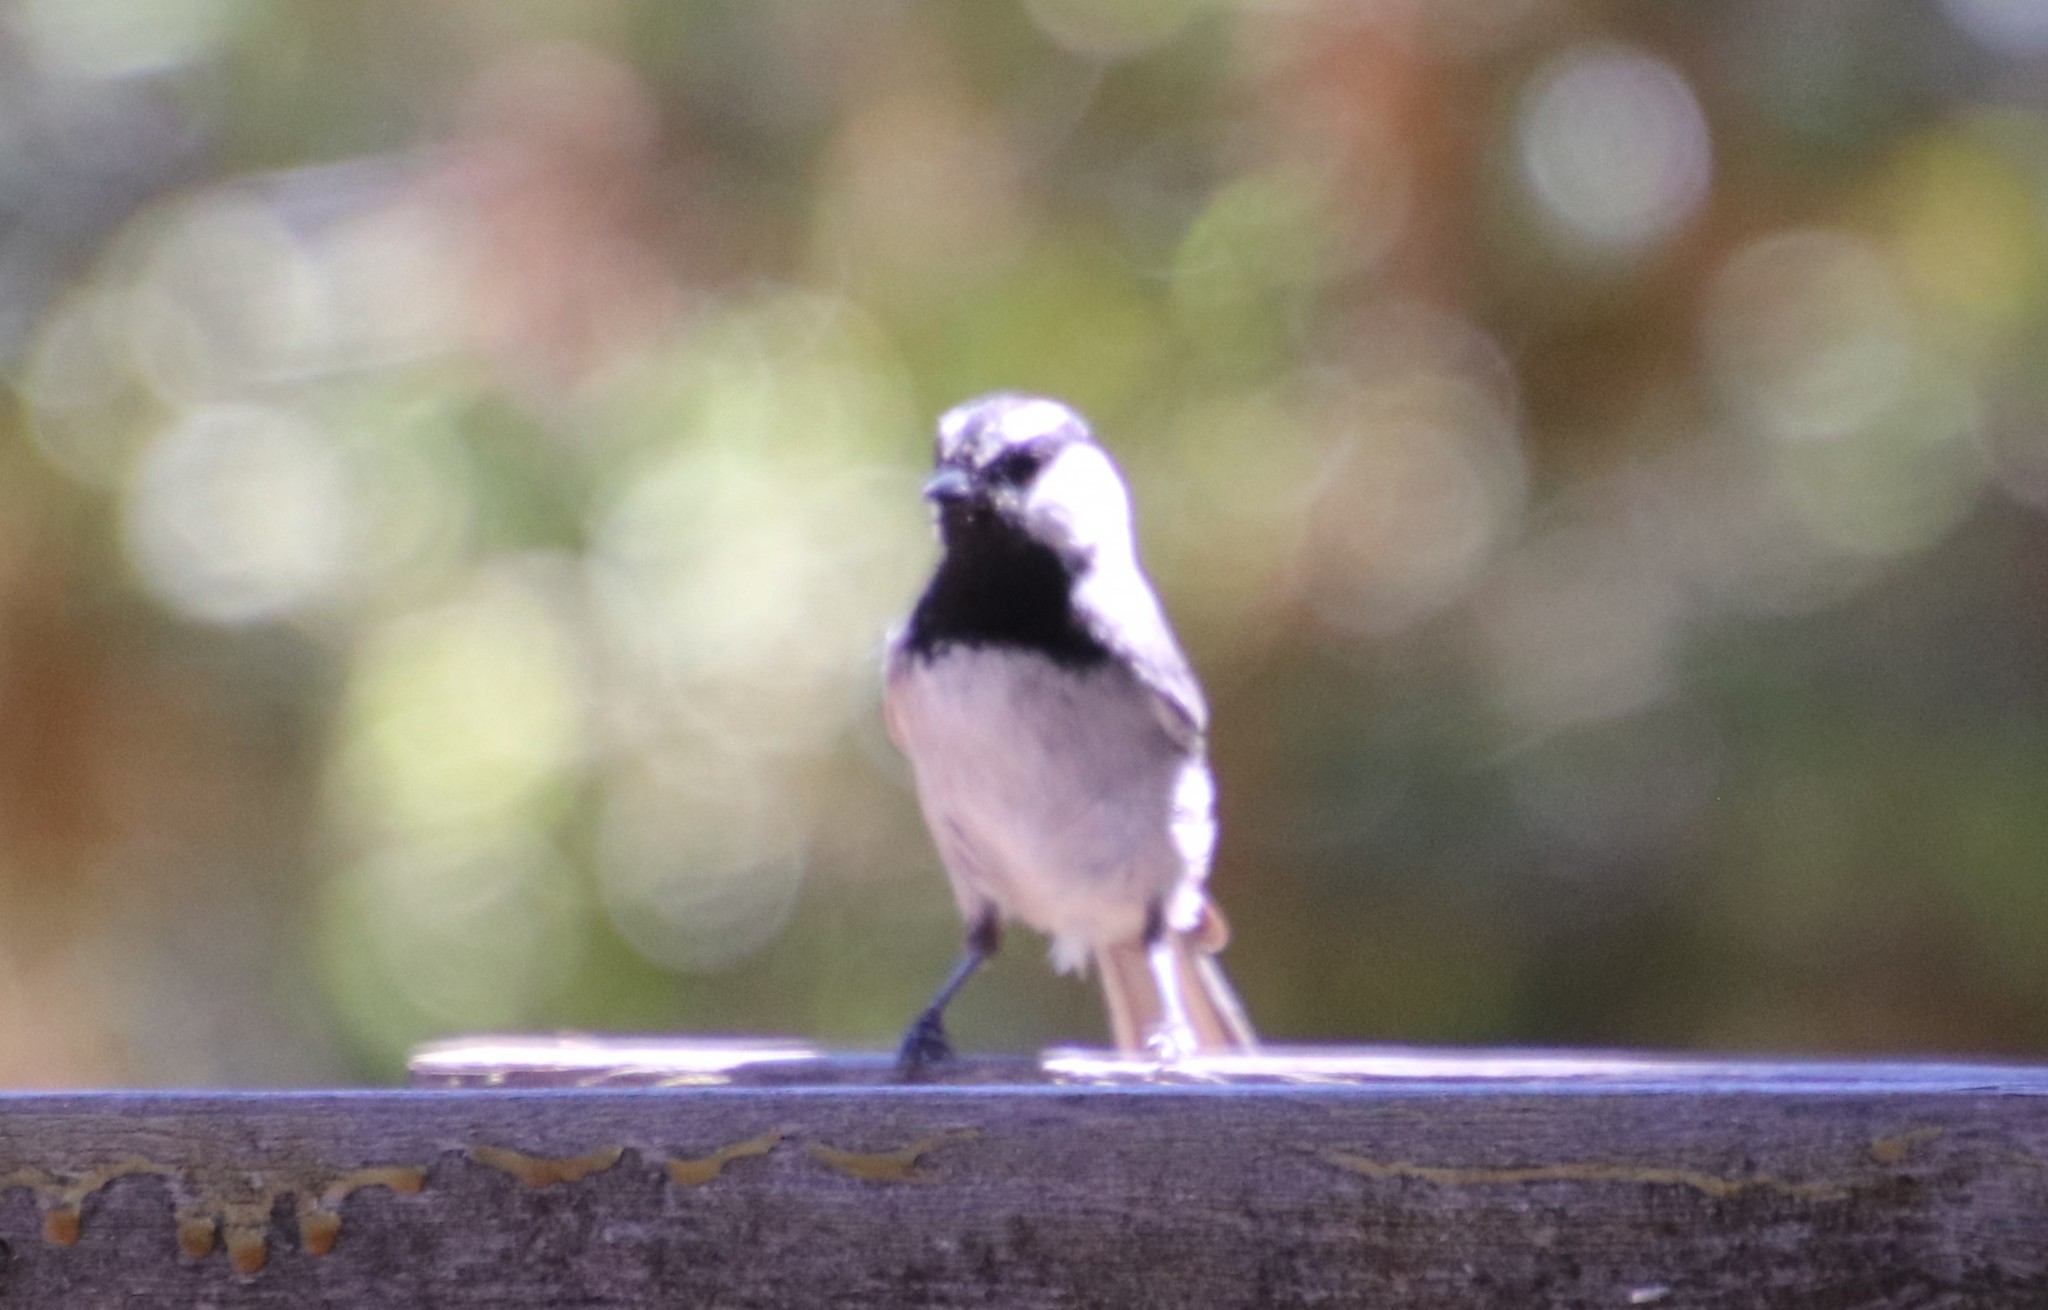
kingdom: Animalia
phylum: Chordata
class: Aves
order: Passeriformes
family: Paridae
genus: Poecile
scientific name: Poecile gambeli
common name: Mountain chickadee
